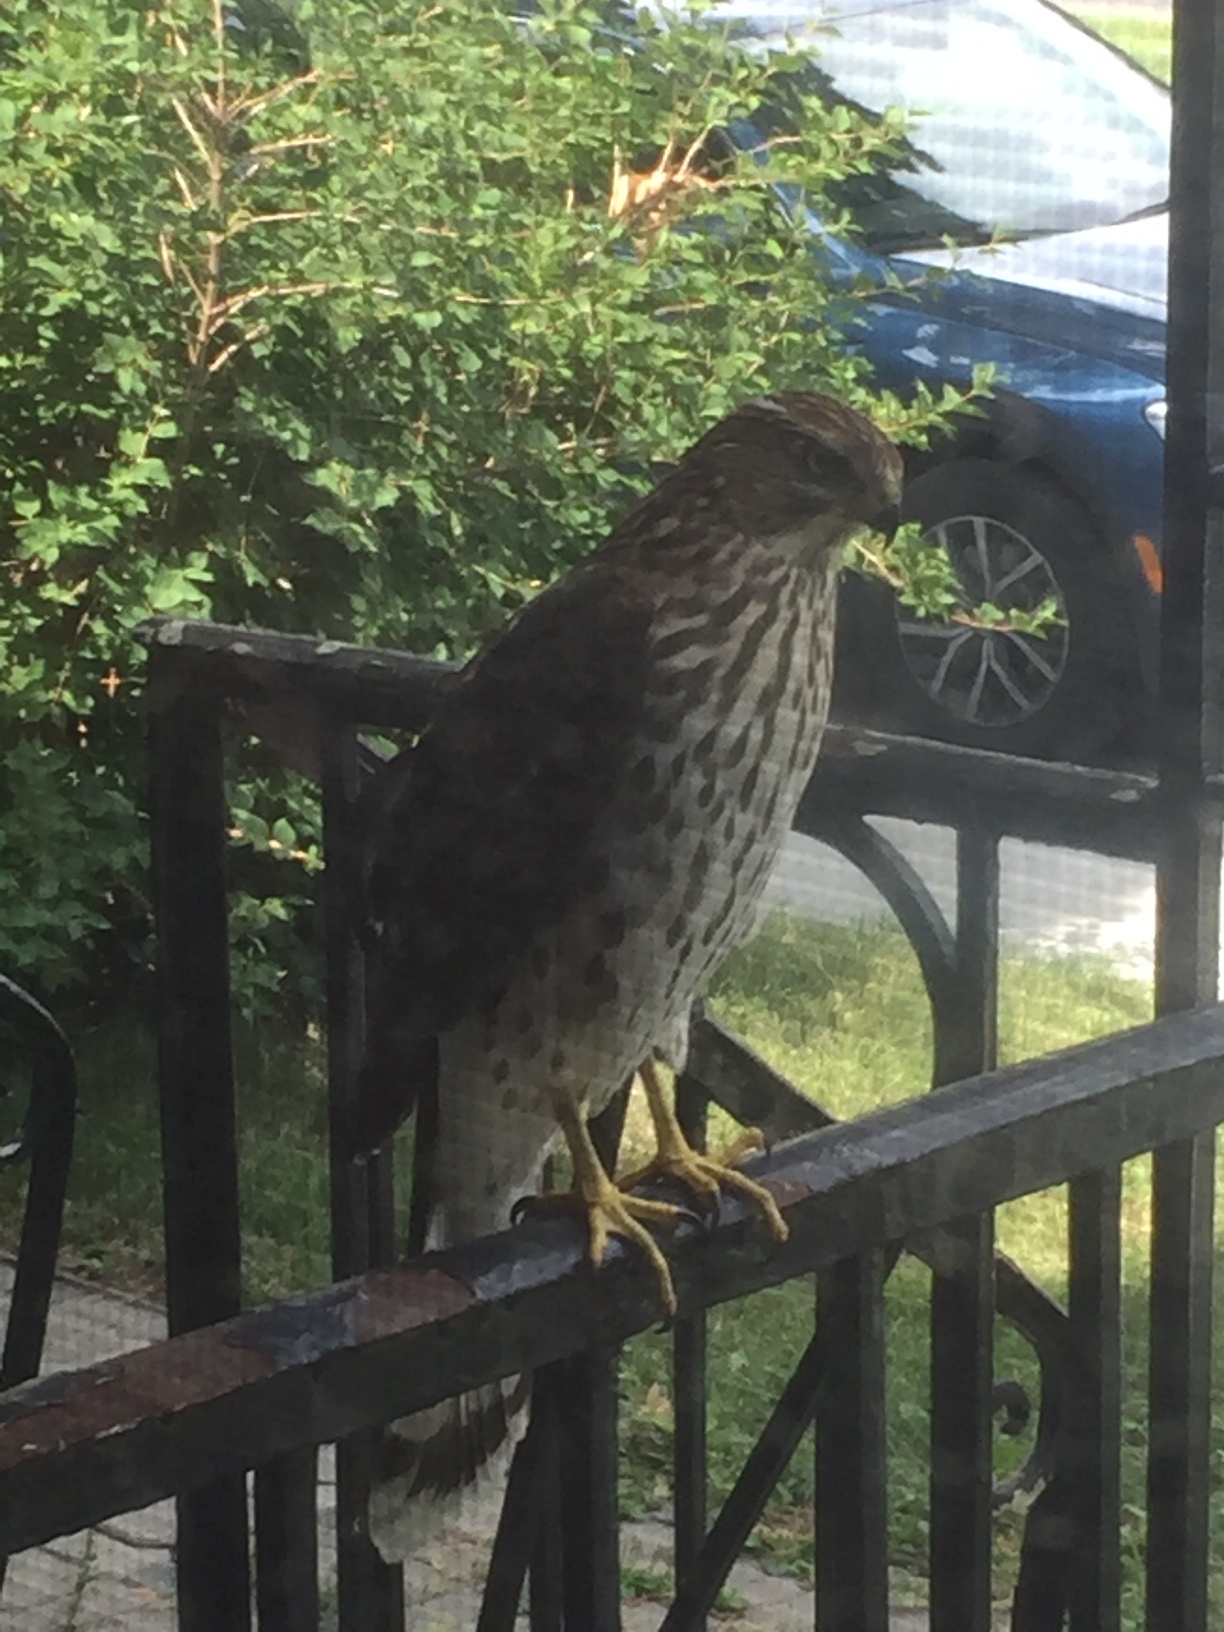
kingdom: Animalia
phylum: Chordata
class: Aves
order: Accipitriformes
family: Accipitridae
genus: Accipiter
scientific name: Accipiter cooperii
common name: Cooper's hawk
